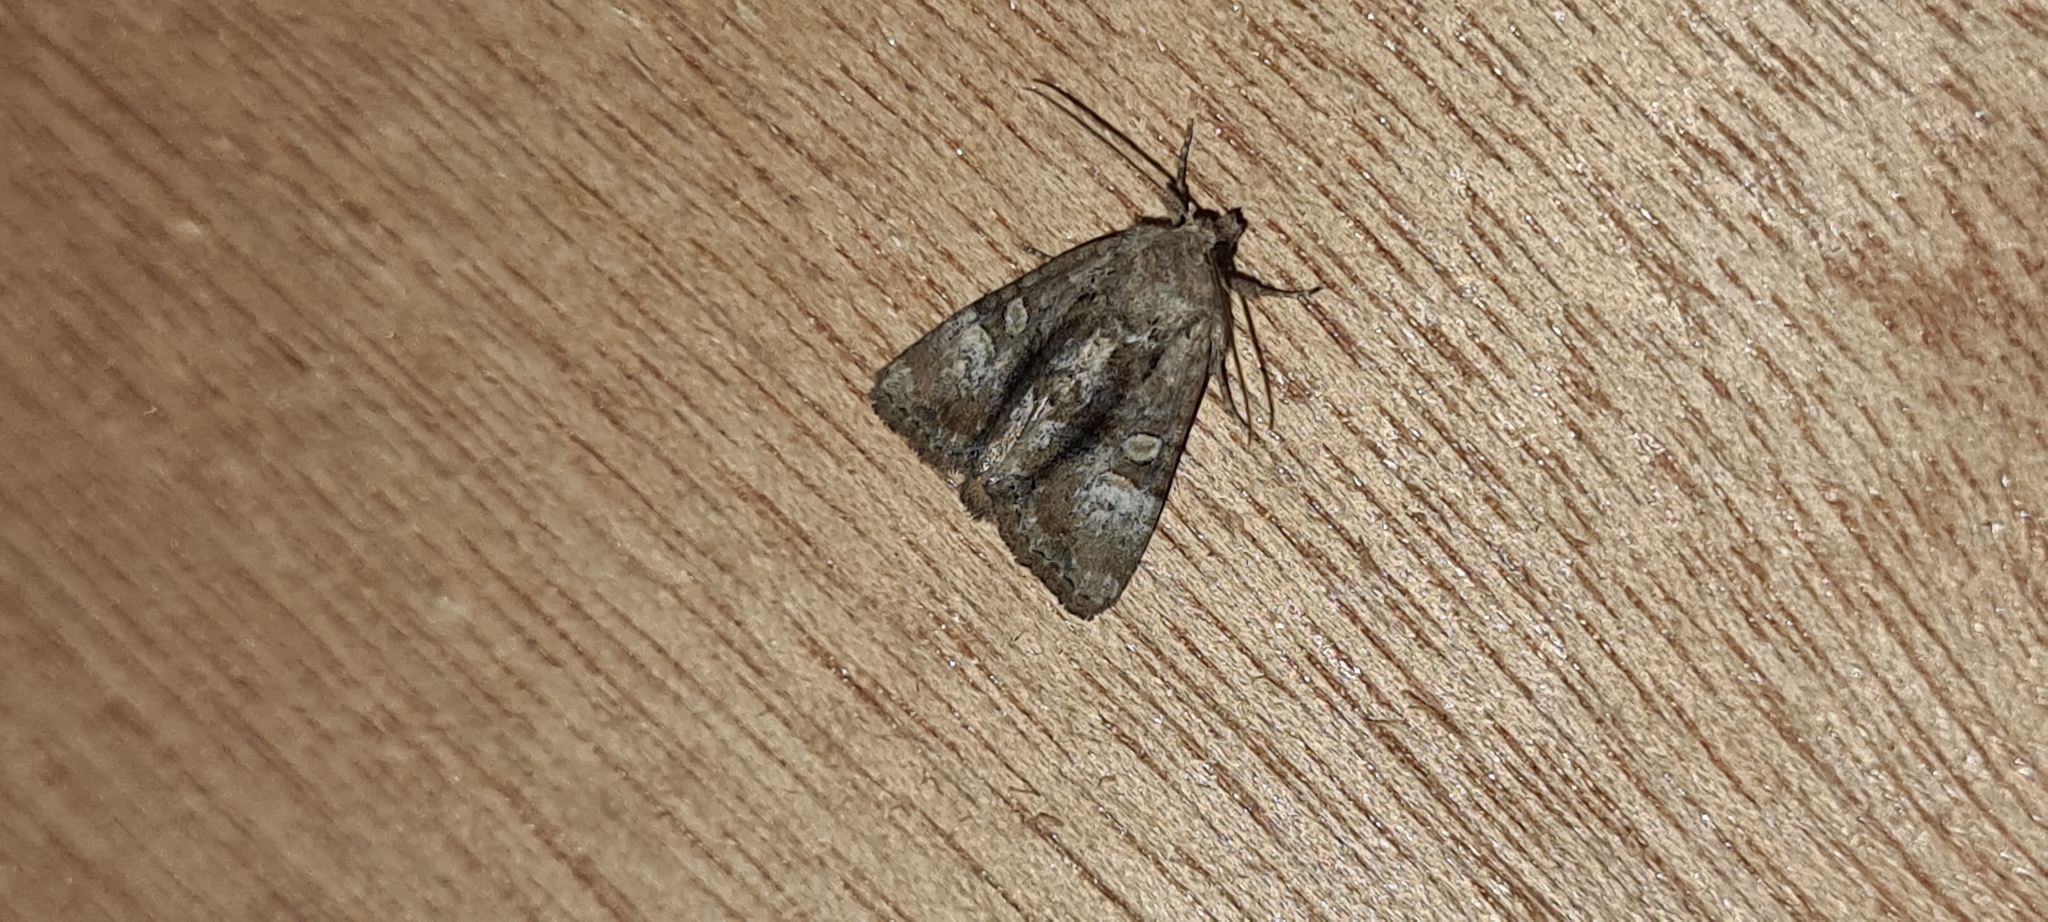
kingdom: Animalia
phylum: Arthropoda
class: Insecta
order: Lepidoptera
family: Noctuidae
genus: Mesoligia
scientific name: Mesoligia furuncula
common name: Cloaked minor
